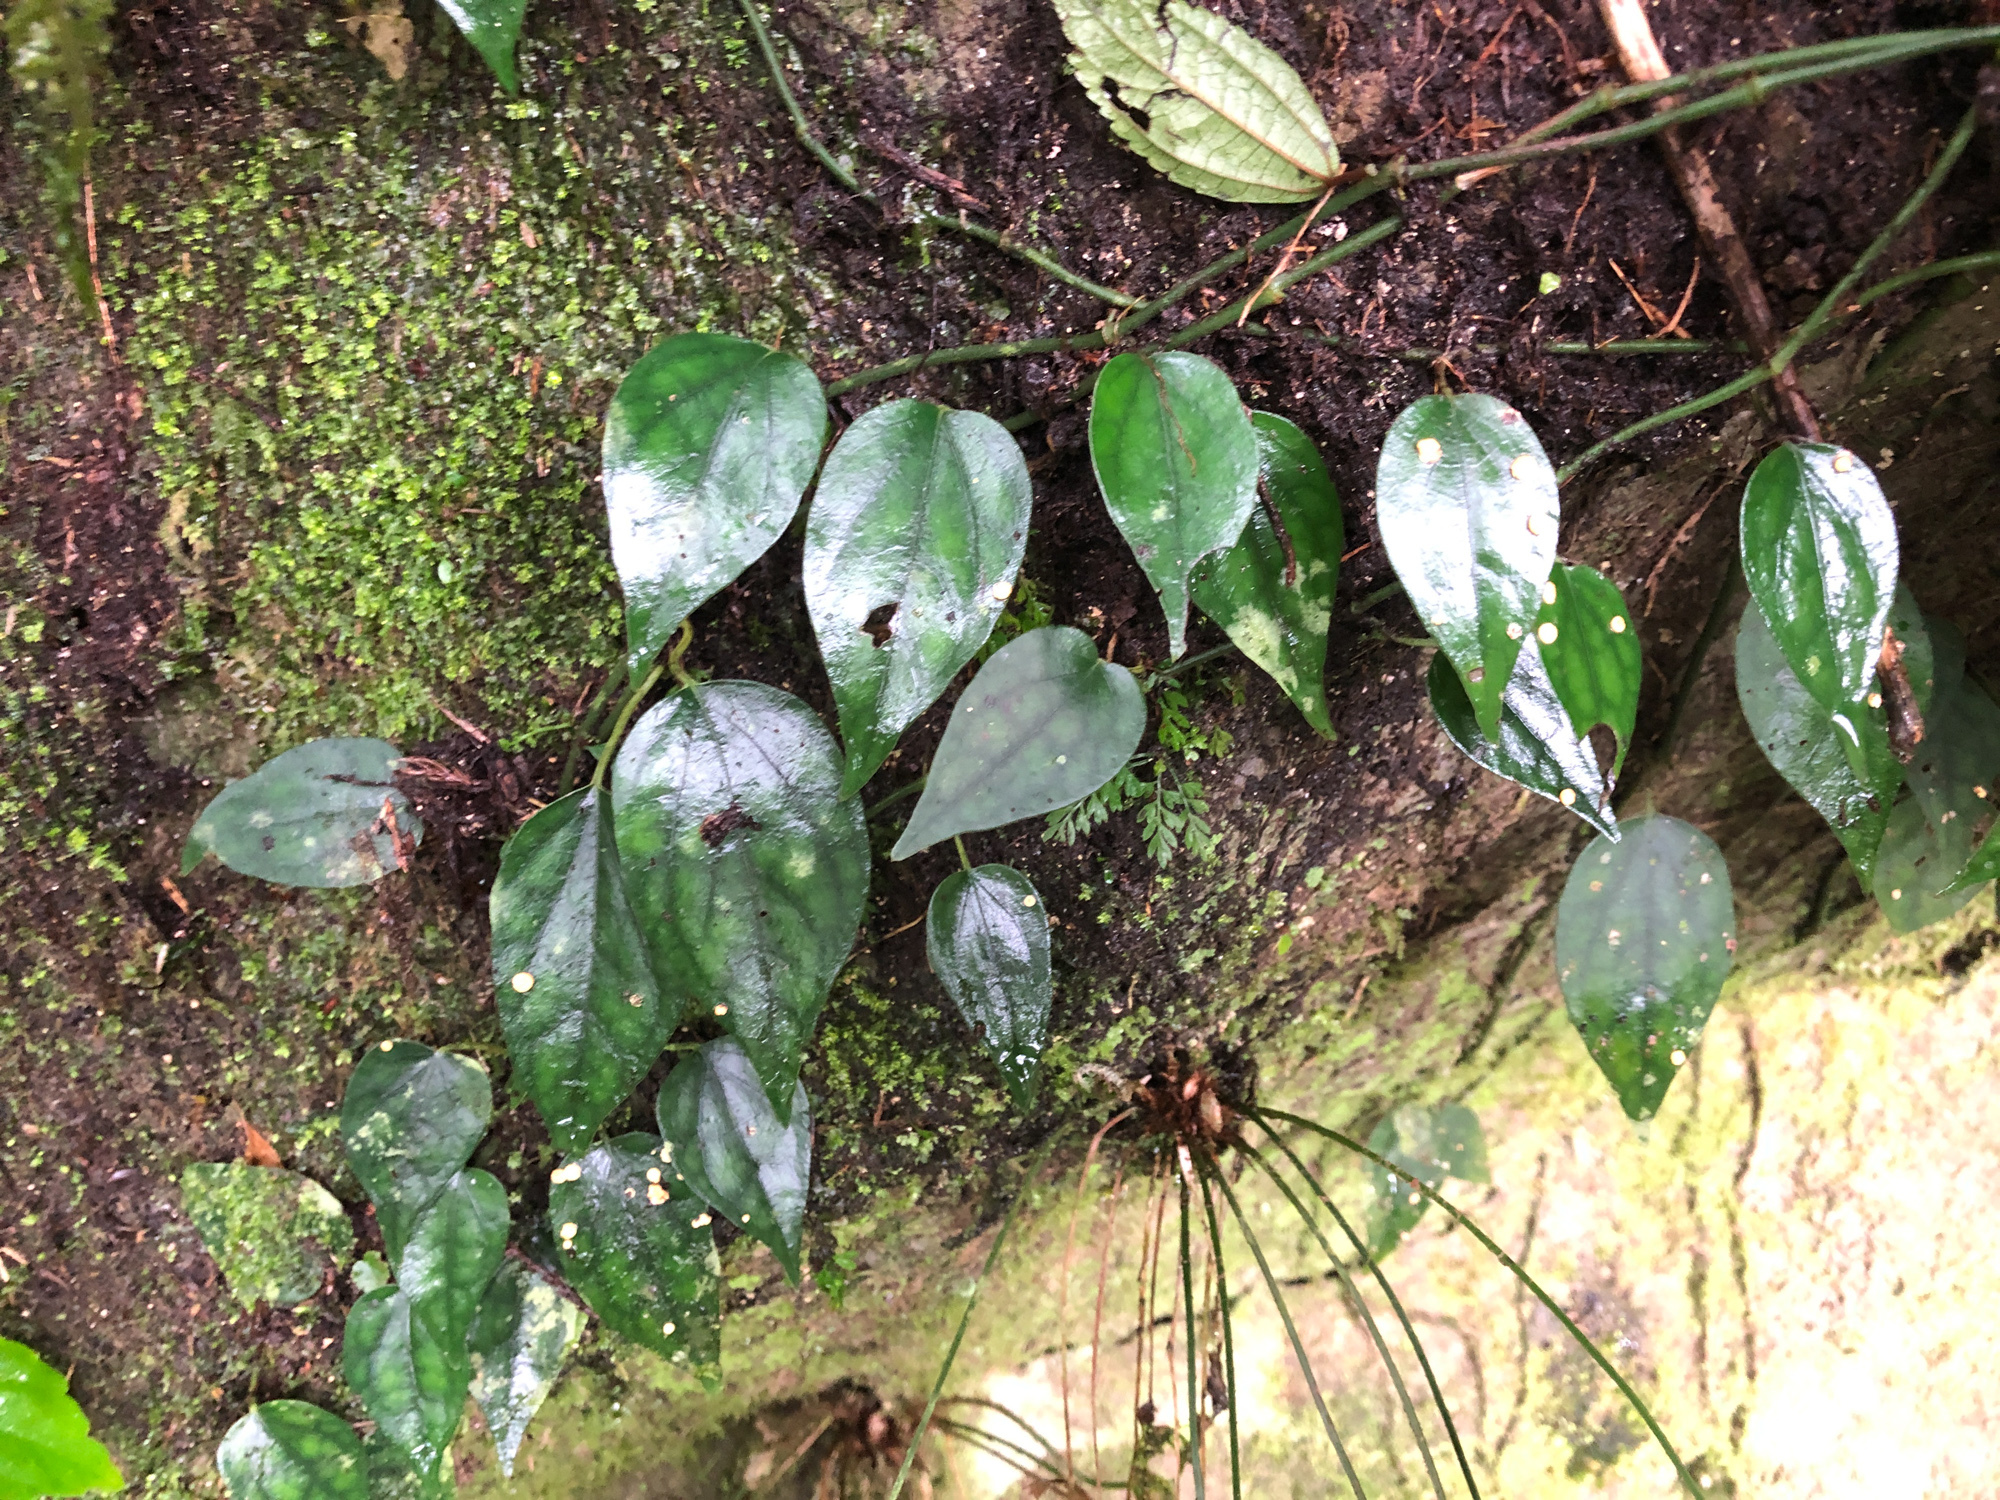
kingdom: Plantae
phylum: Tracheophyta
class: Magnoliopsida
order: Piperales
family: Piperaceae
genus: Piper
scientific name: Piper kadsura
